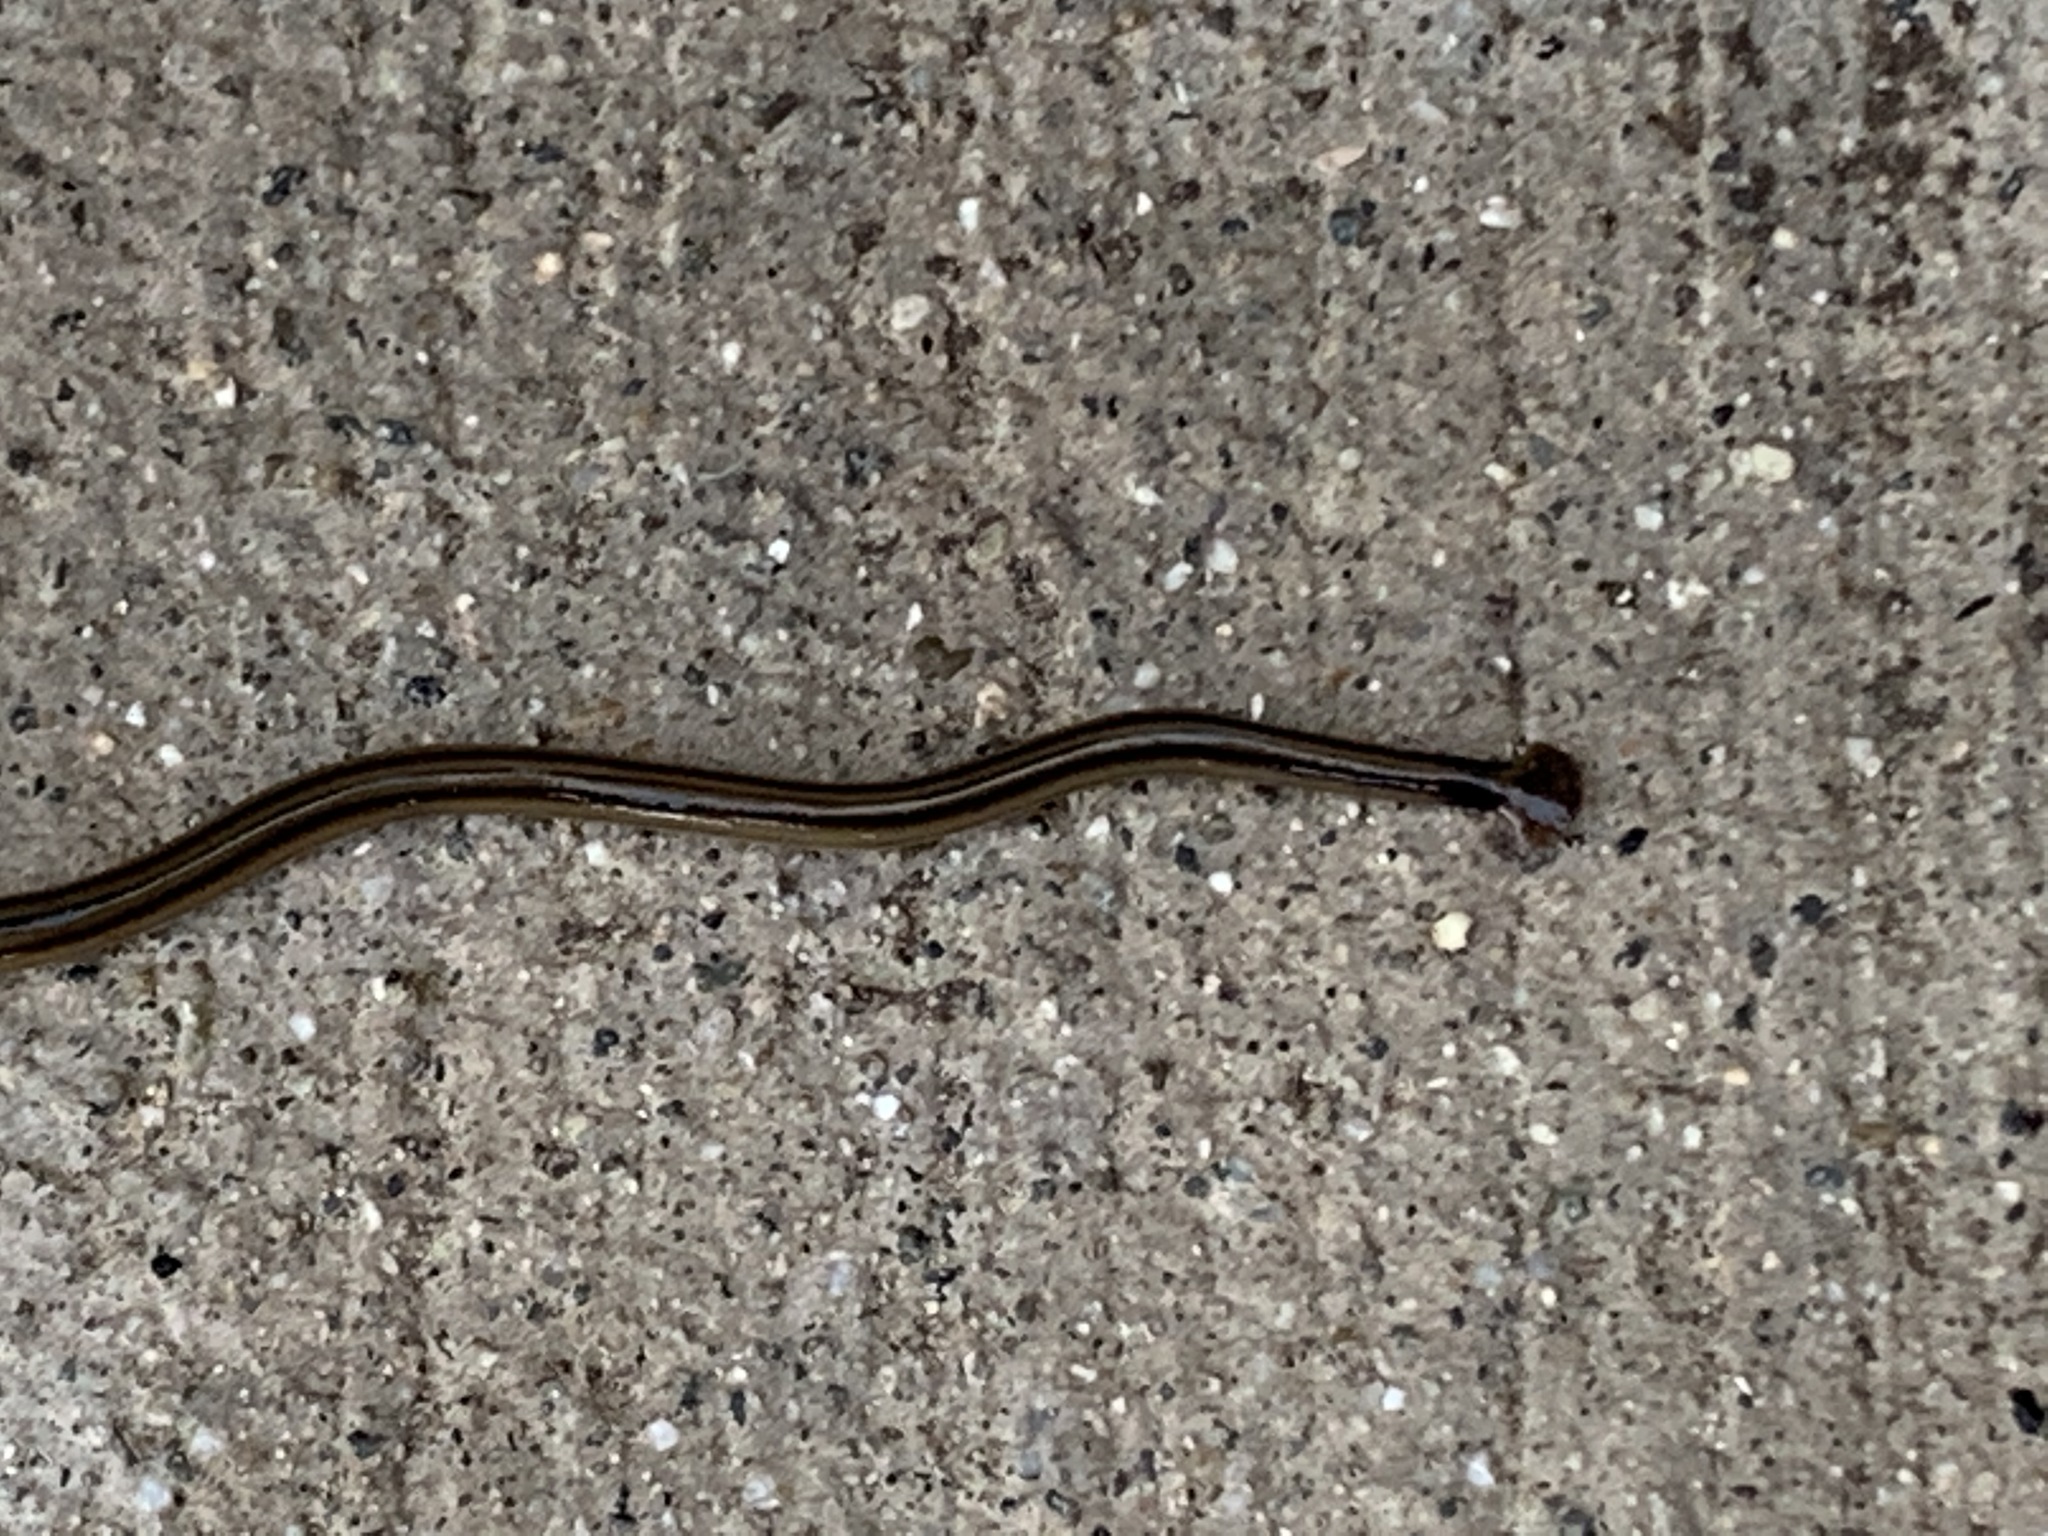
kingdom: Animalia
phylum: Platyhelminthes
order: Tricladida
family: Geoplanidae
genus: Bipalium
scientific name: Bipalium kewense
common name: Hammerhead flatworm
